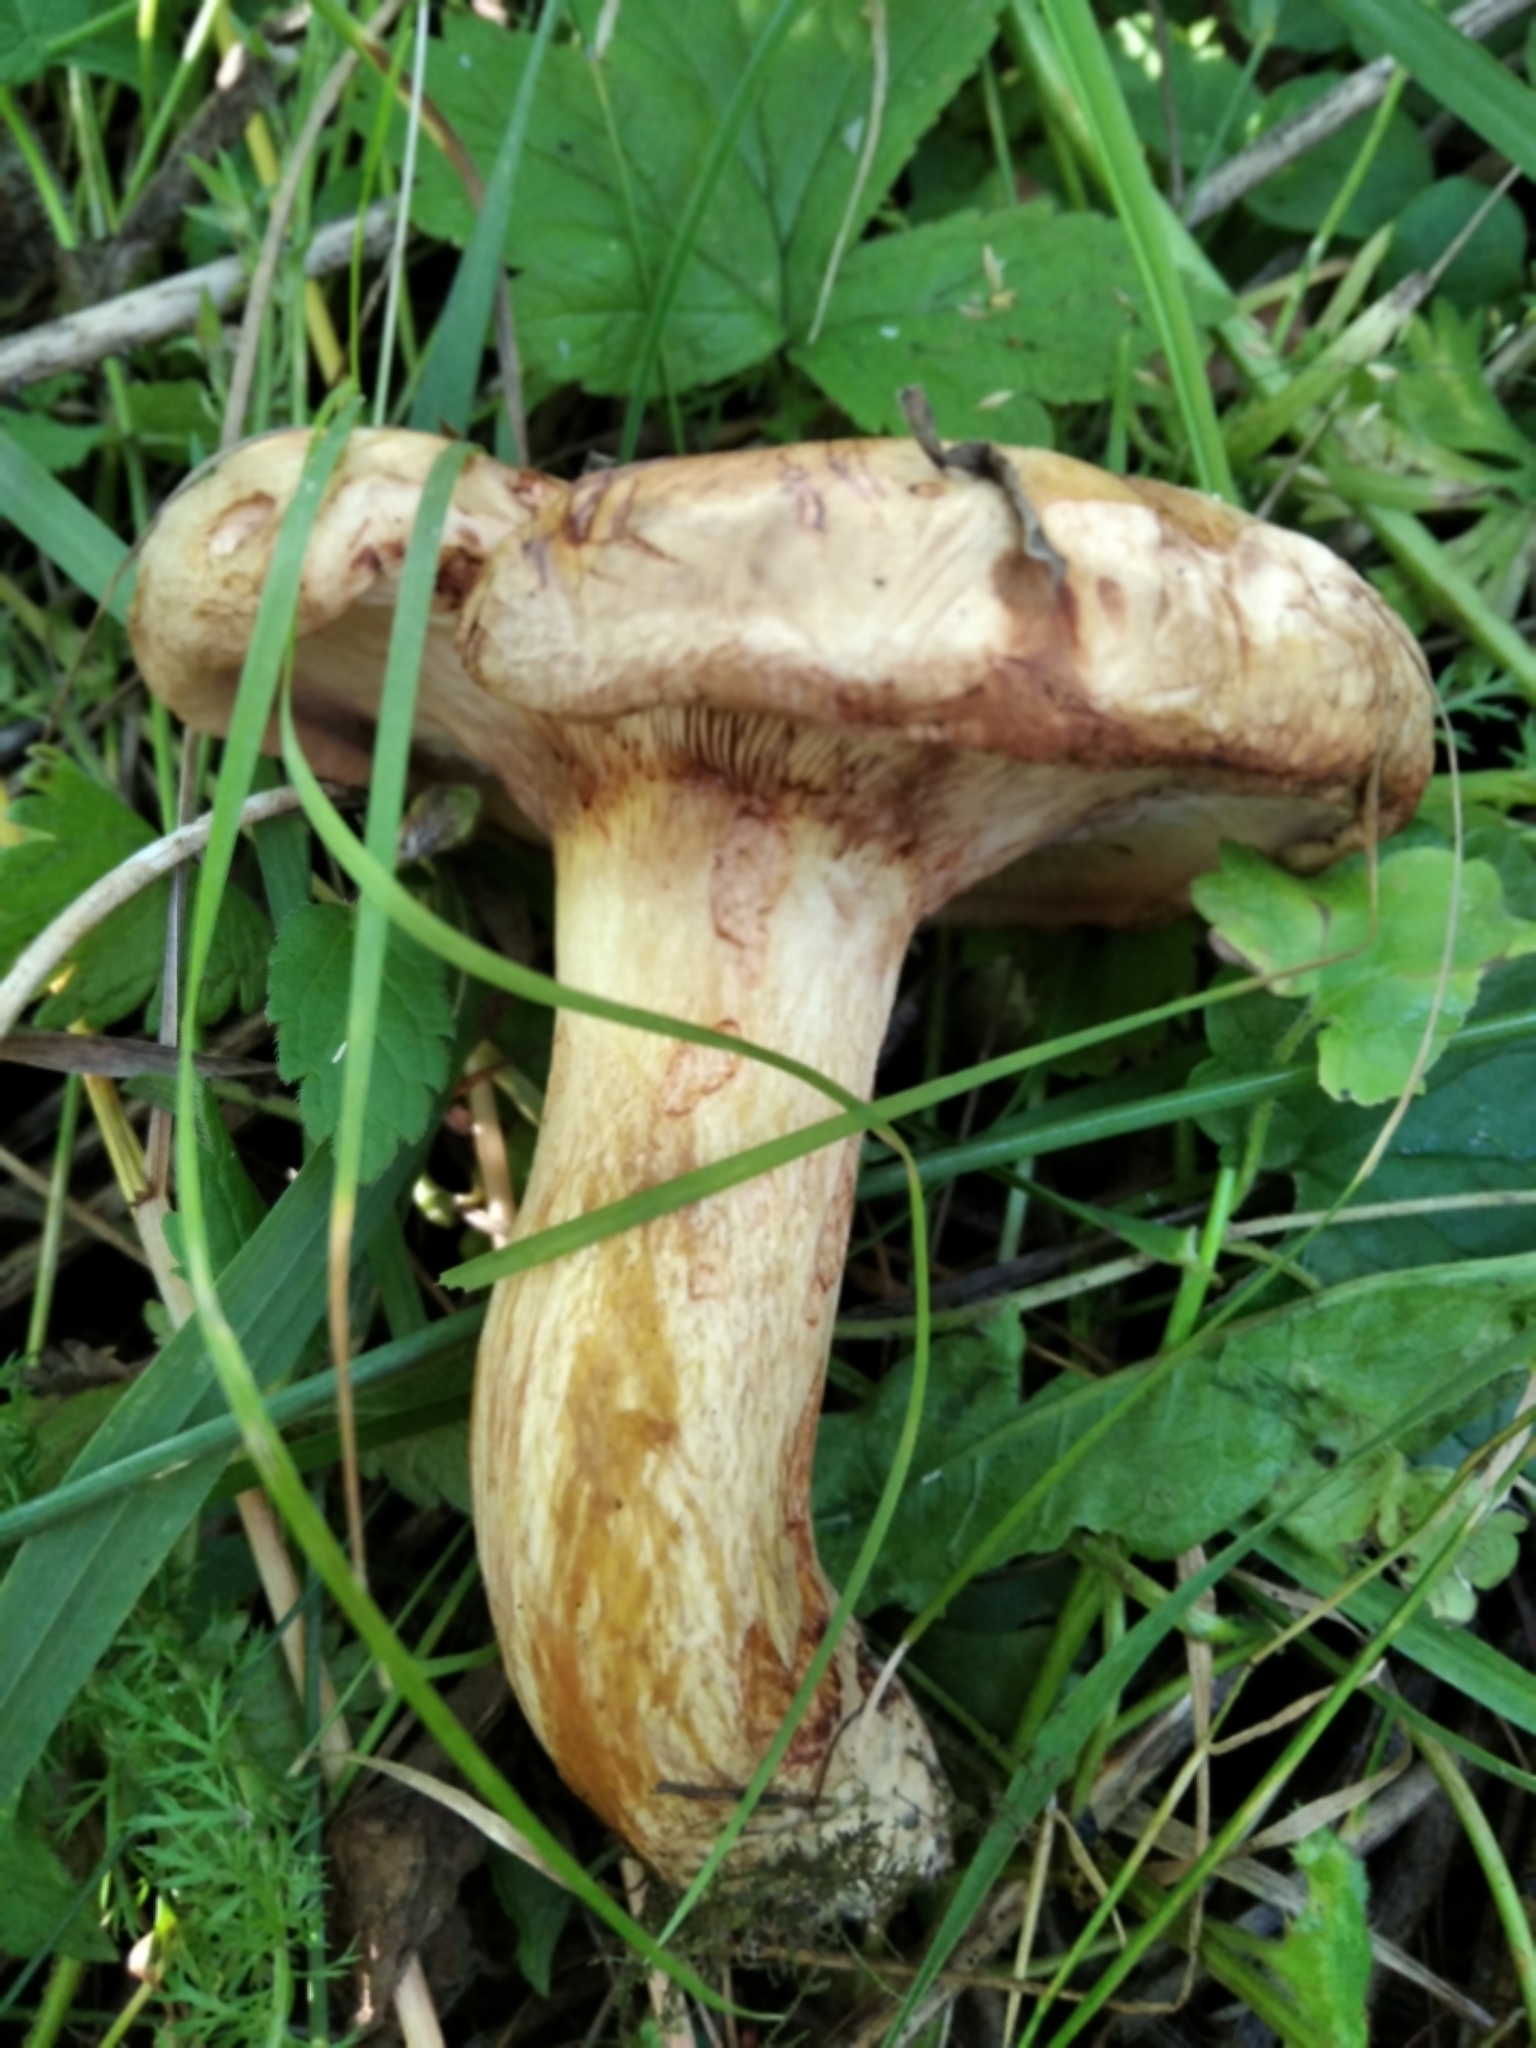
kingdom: Fungi
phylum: Basidiomycota
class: Agaricomycetes
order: Boletales
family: Paxillaceae
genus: Paxillus
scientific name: Paxillus involutus
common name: Brown roll rim
